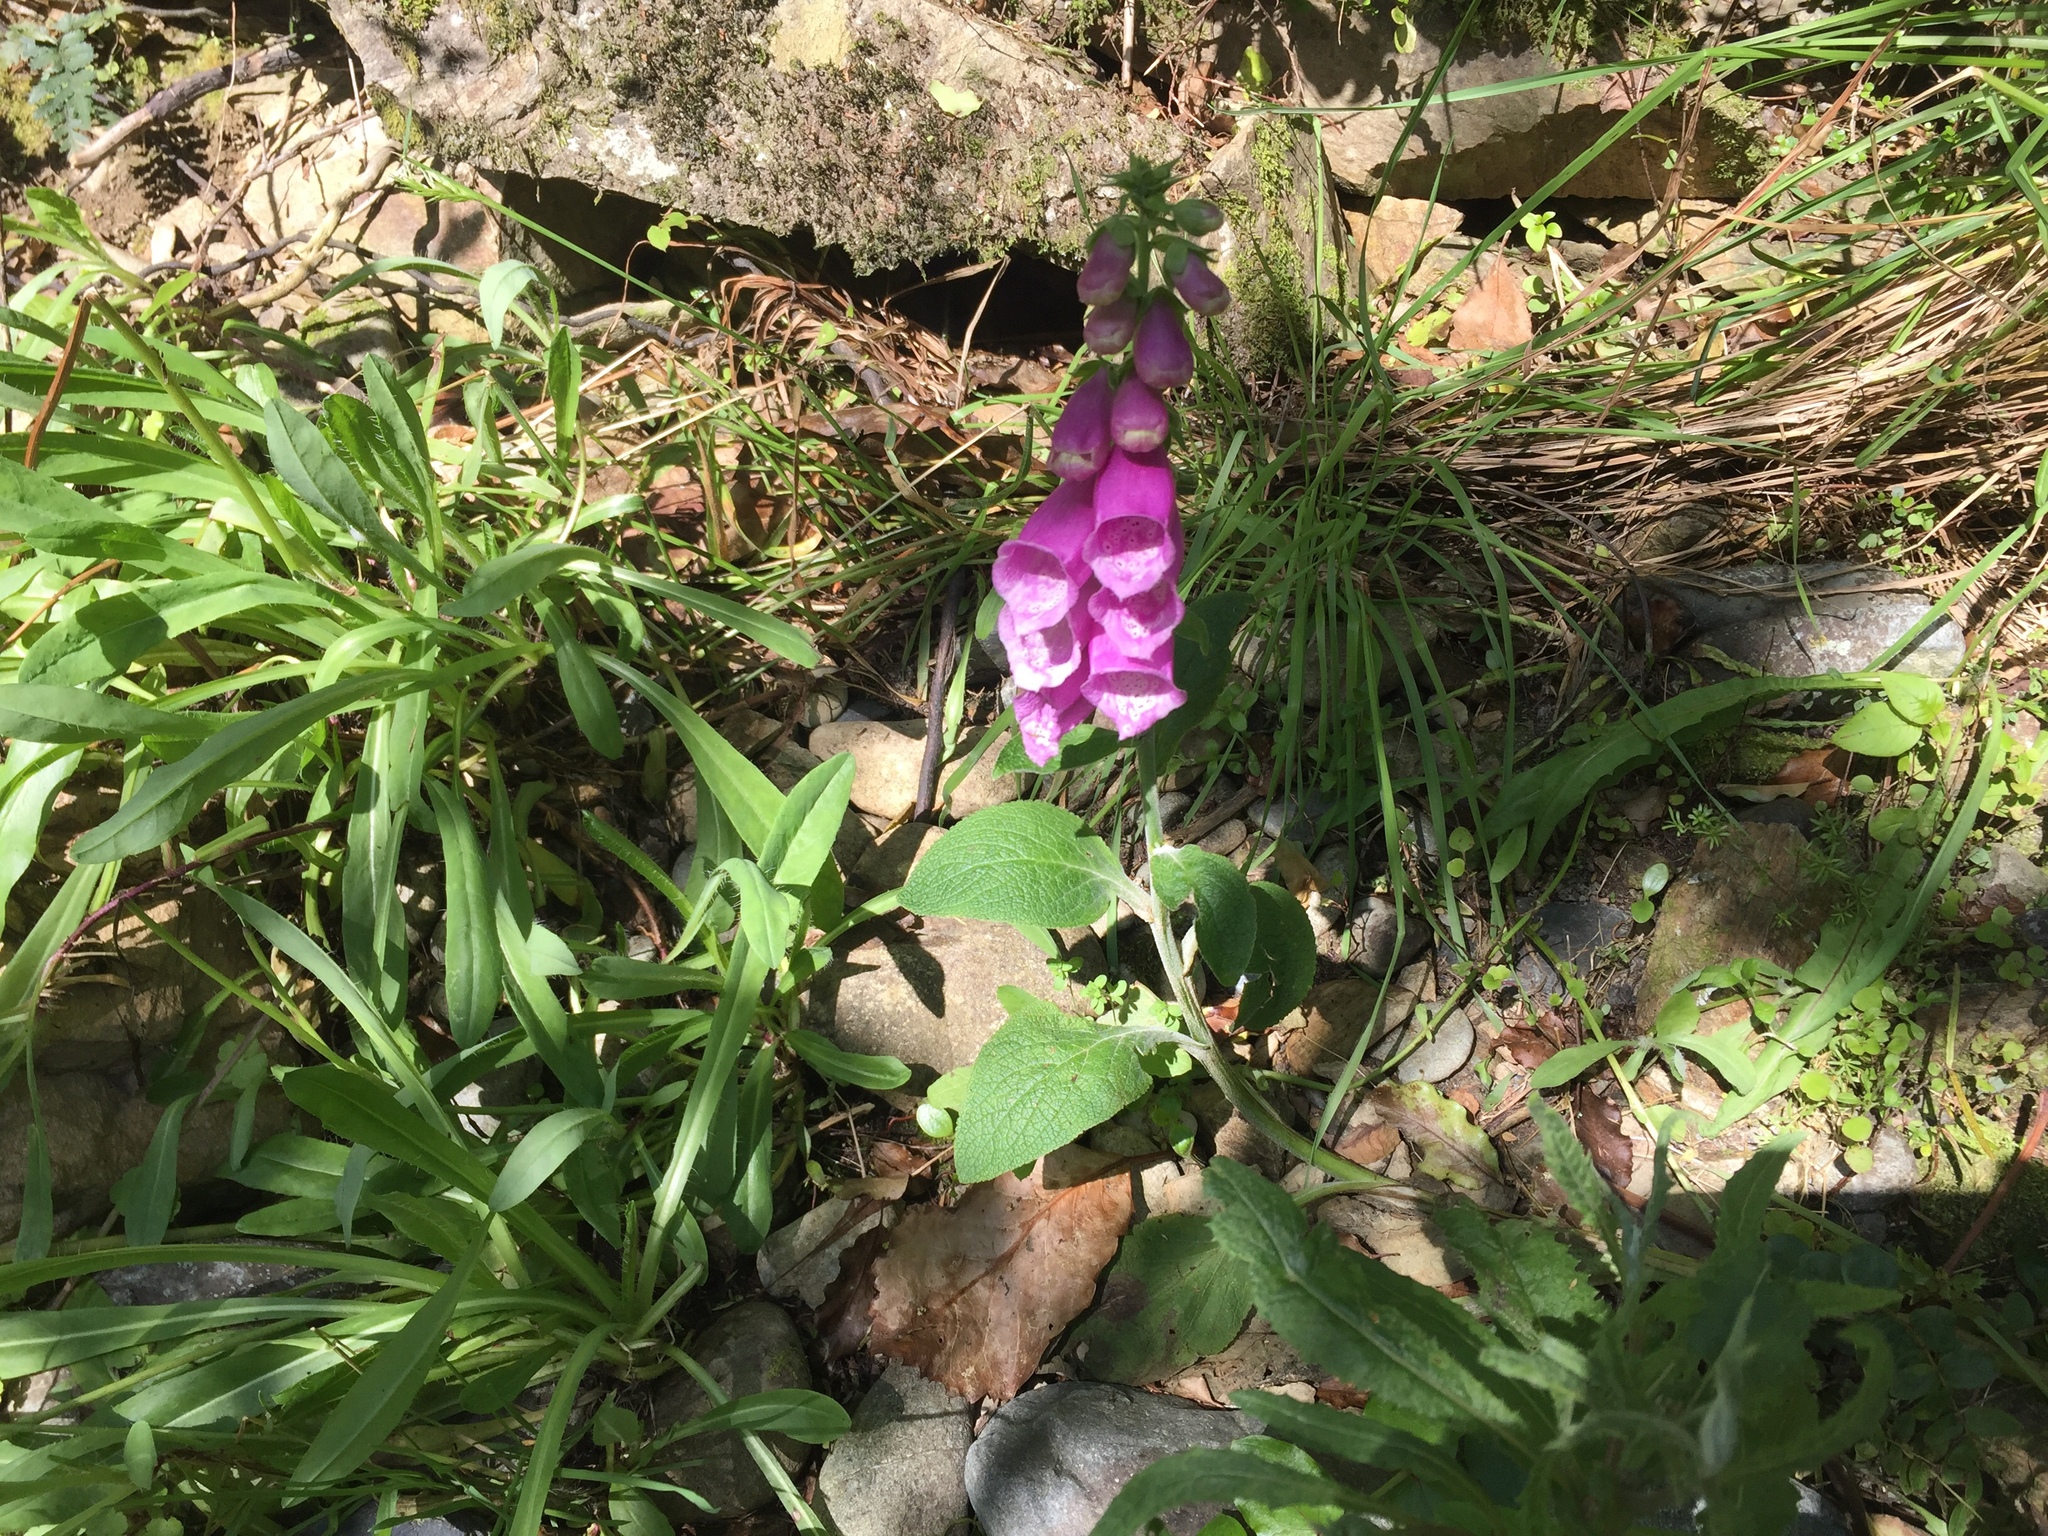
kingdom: Plantae
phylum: Tracheophyta
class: Magnoliopsida
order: Lamiales
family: Plantaginaceae
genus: Digitalis
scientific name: Digitalis purpurea
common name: Foxglove
